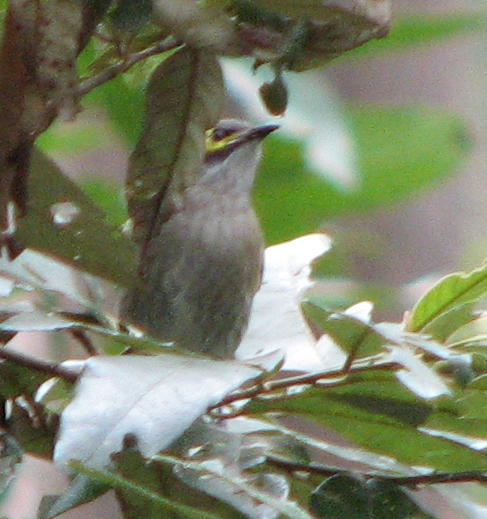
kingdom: Animalia
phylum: Chordata
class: Aves
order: Passeriformes
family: Meliphagidae
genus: Caligavis
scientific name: Caligavis chrysops
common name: Yellow-faced honeyeater
